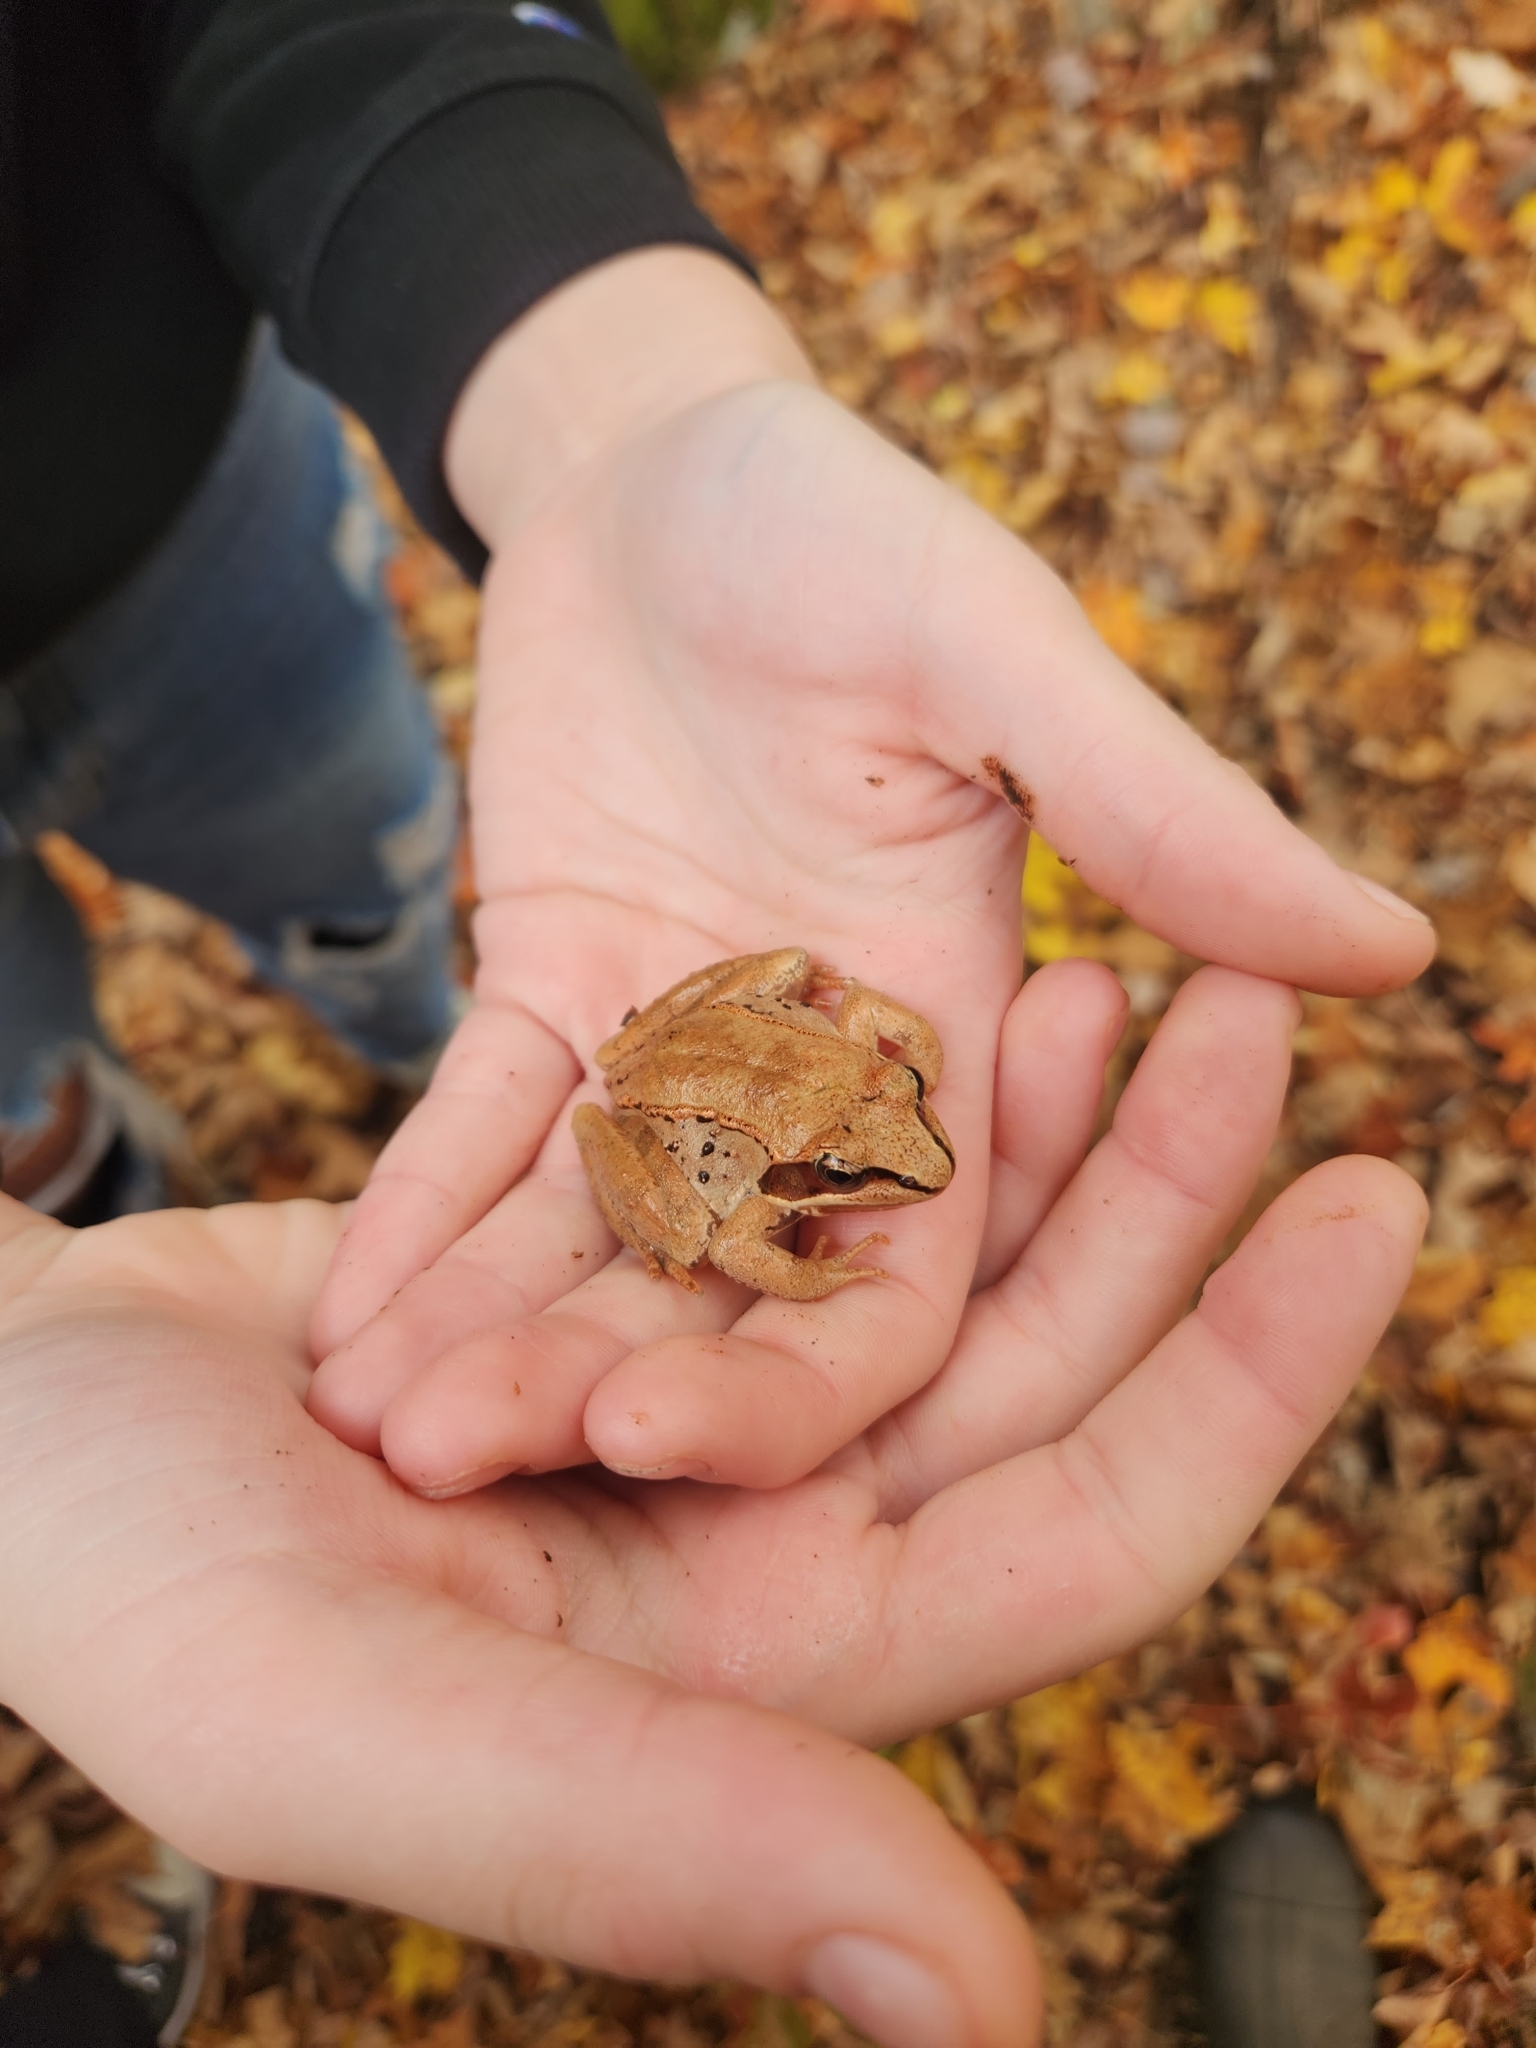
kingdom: Animalia
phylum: Chordata
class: Amphibia
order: Anura
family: Ranidae
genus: Lithobates
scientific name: Lithobates sylvaticus
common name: Wood frog
